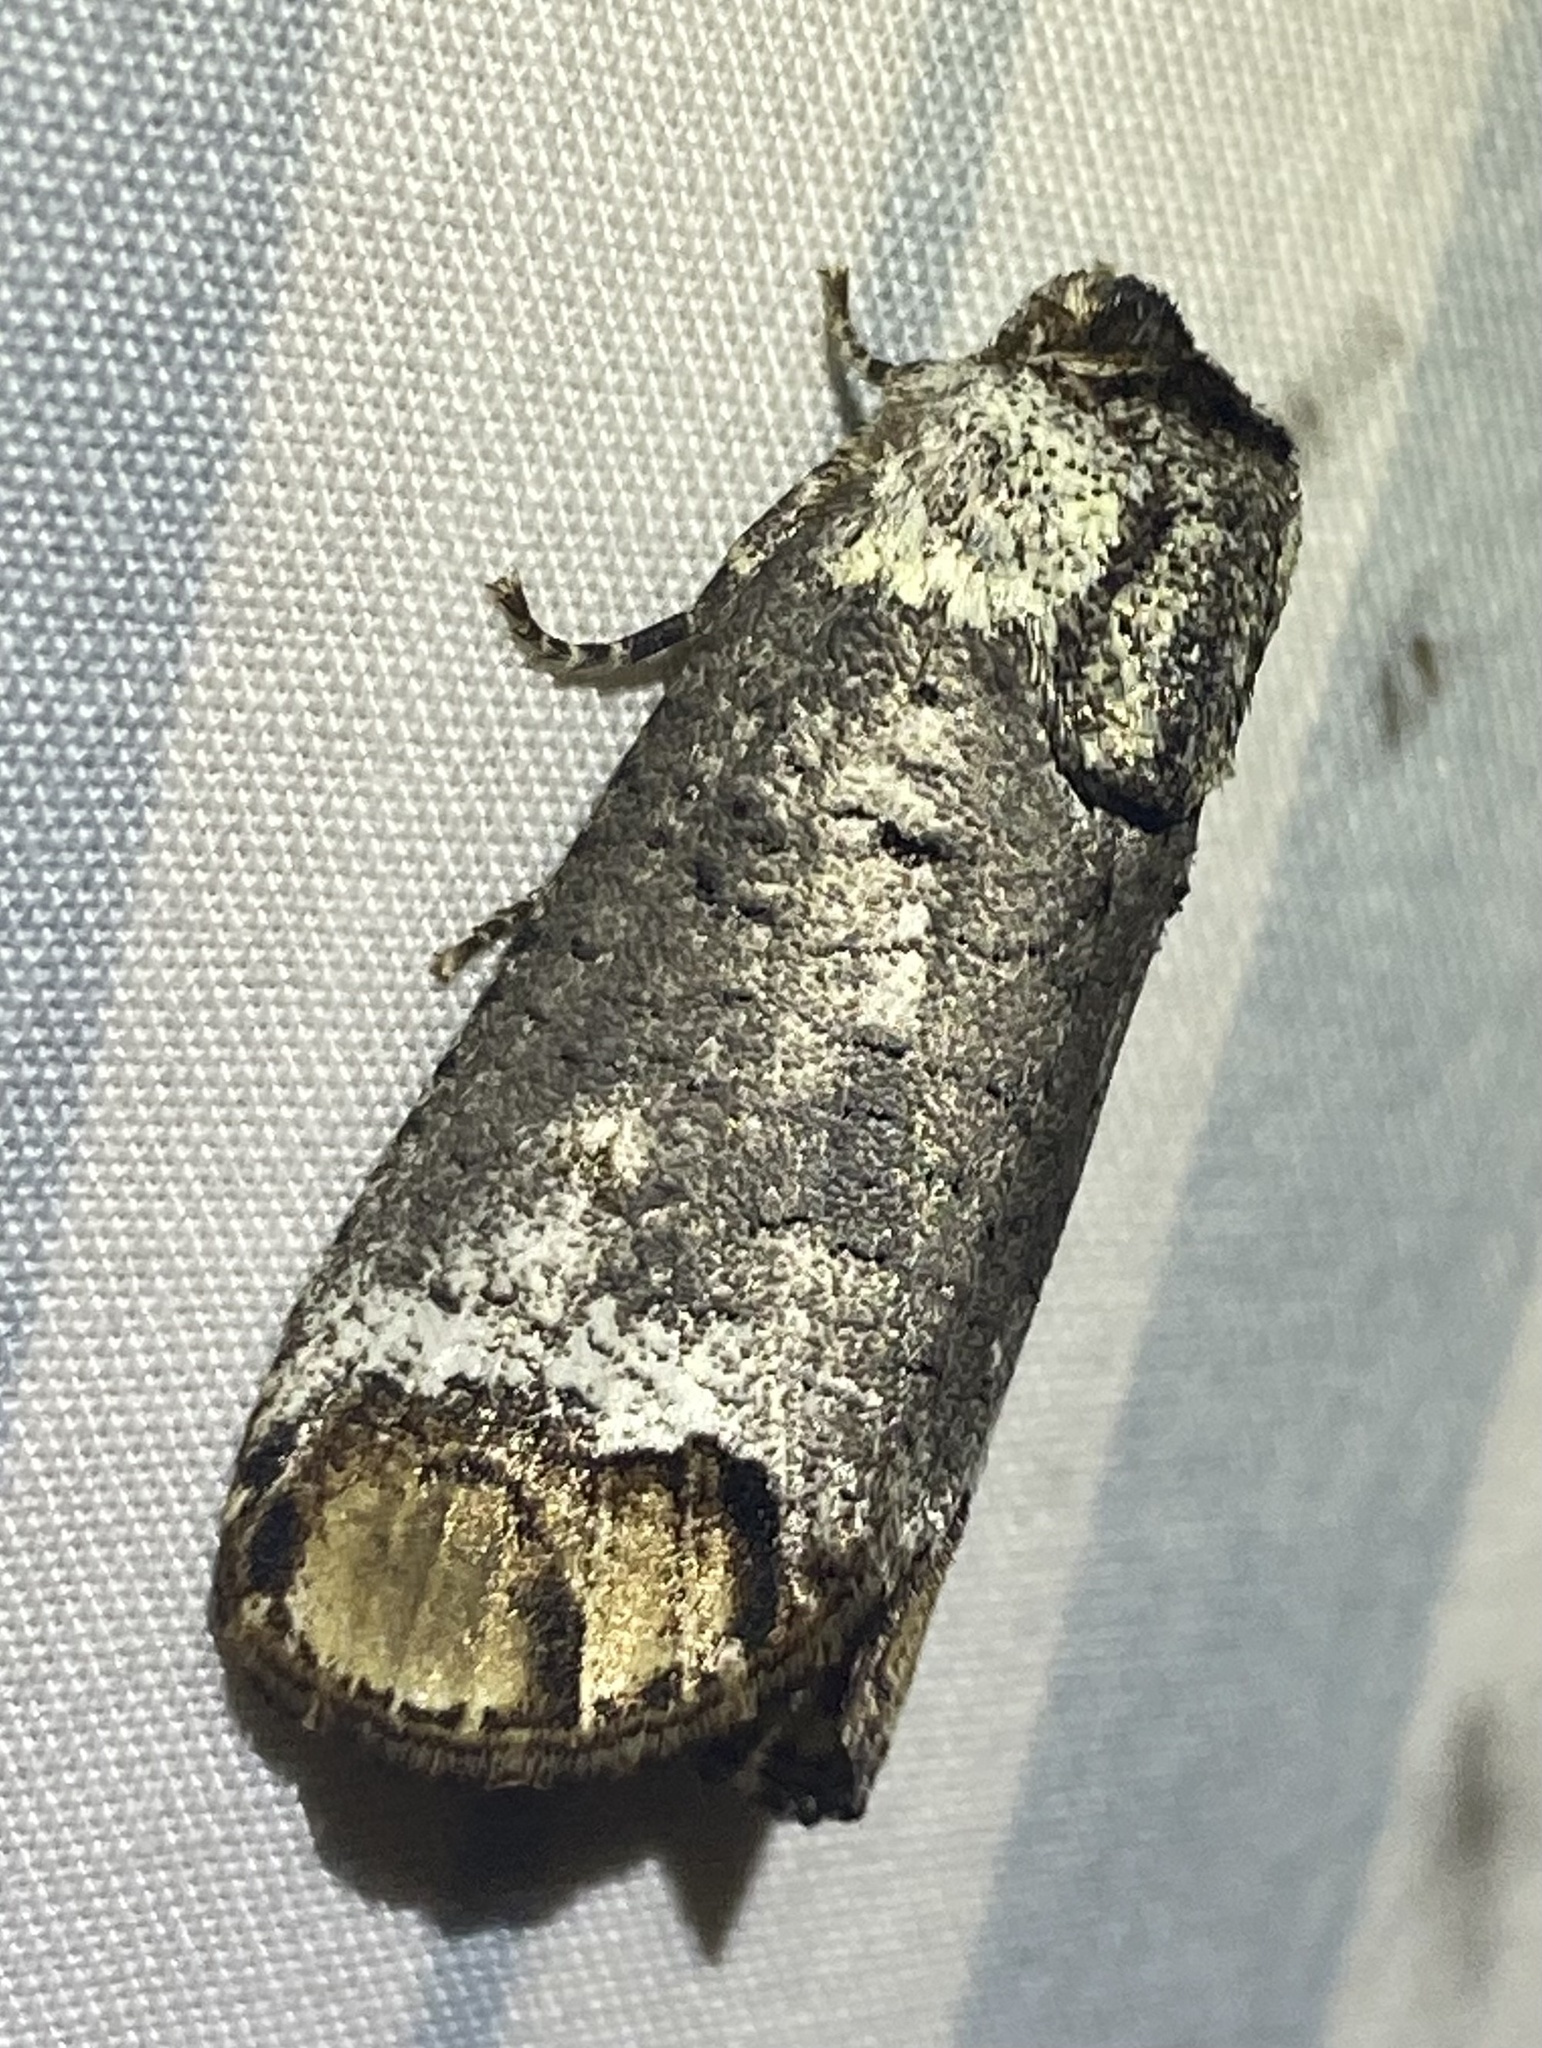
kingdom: Animalia
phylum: Arthropoda
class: Insecta
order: Lepidoptera
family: Cossidae
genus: Cossula
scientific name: Cossula magnifica
